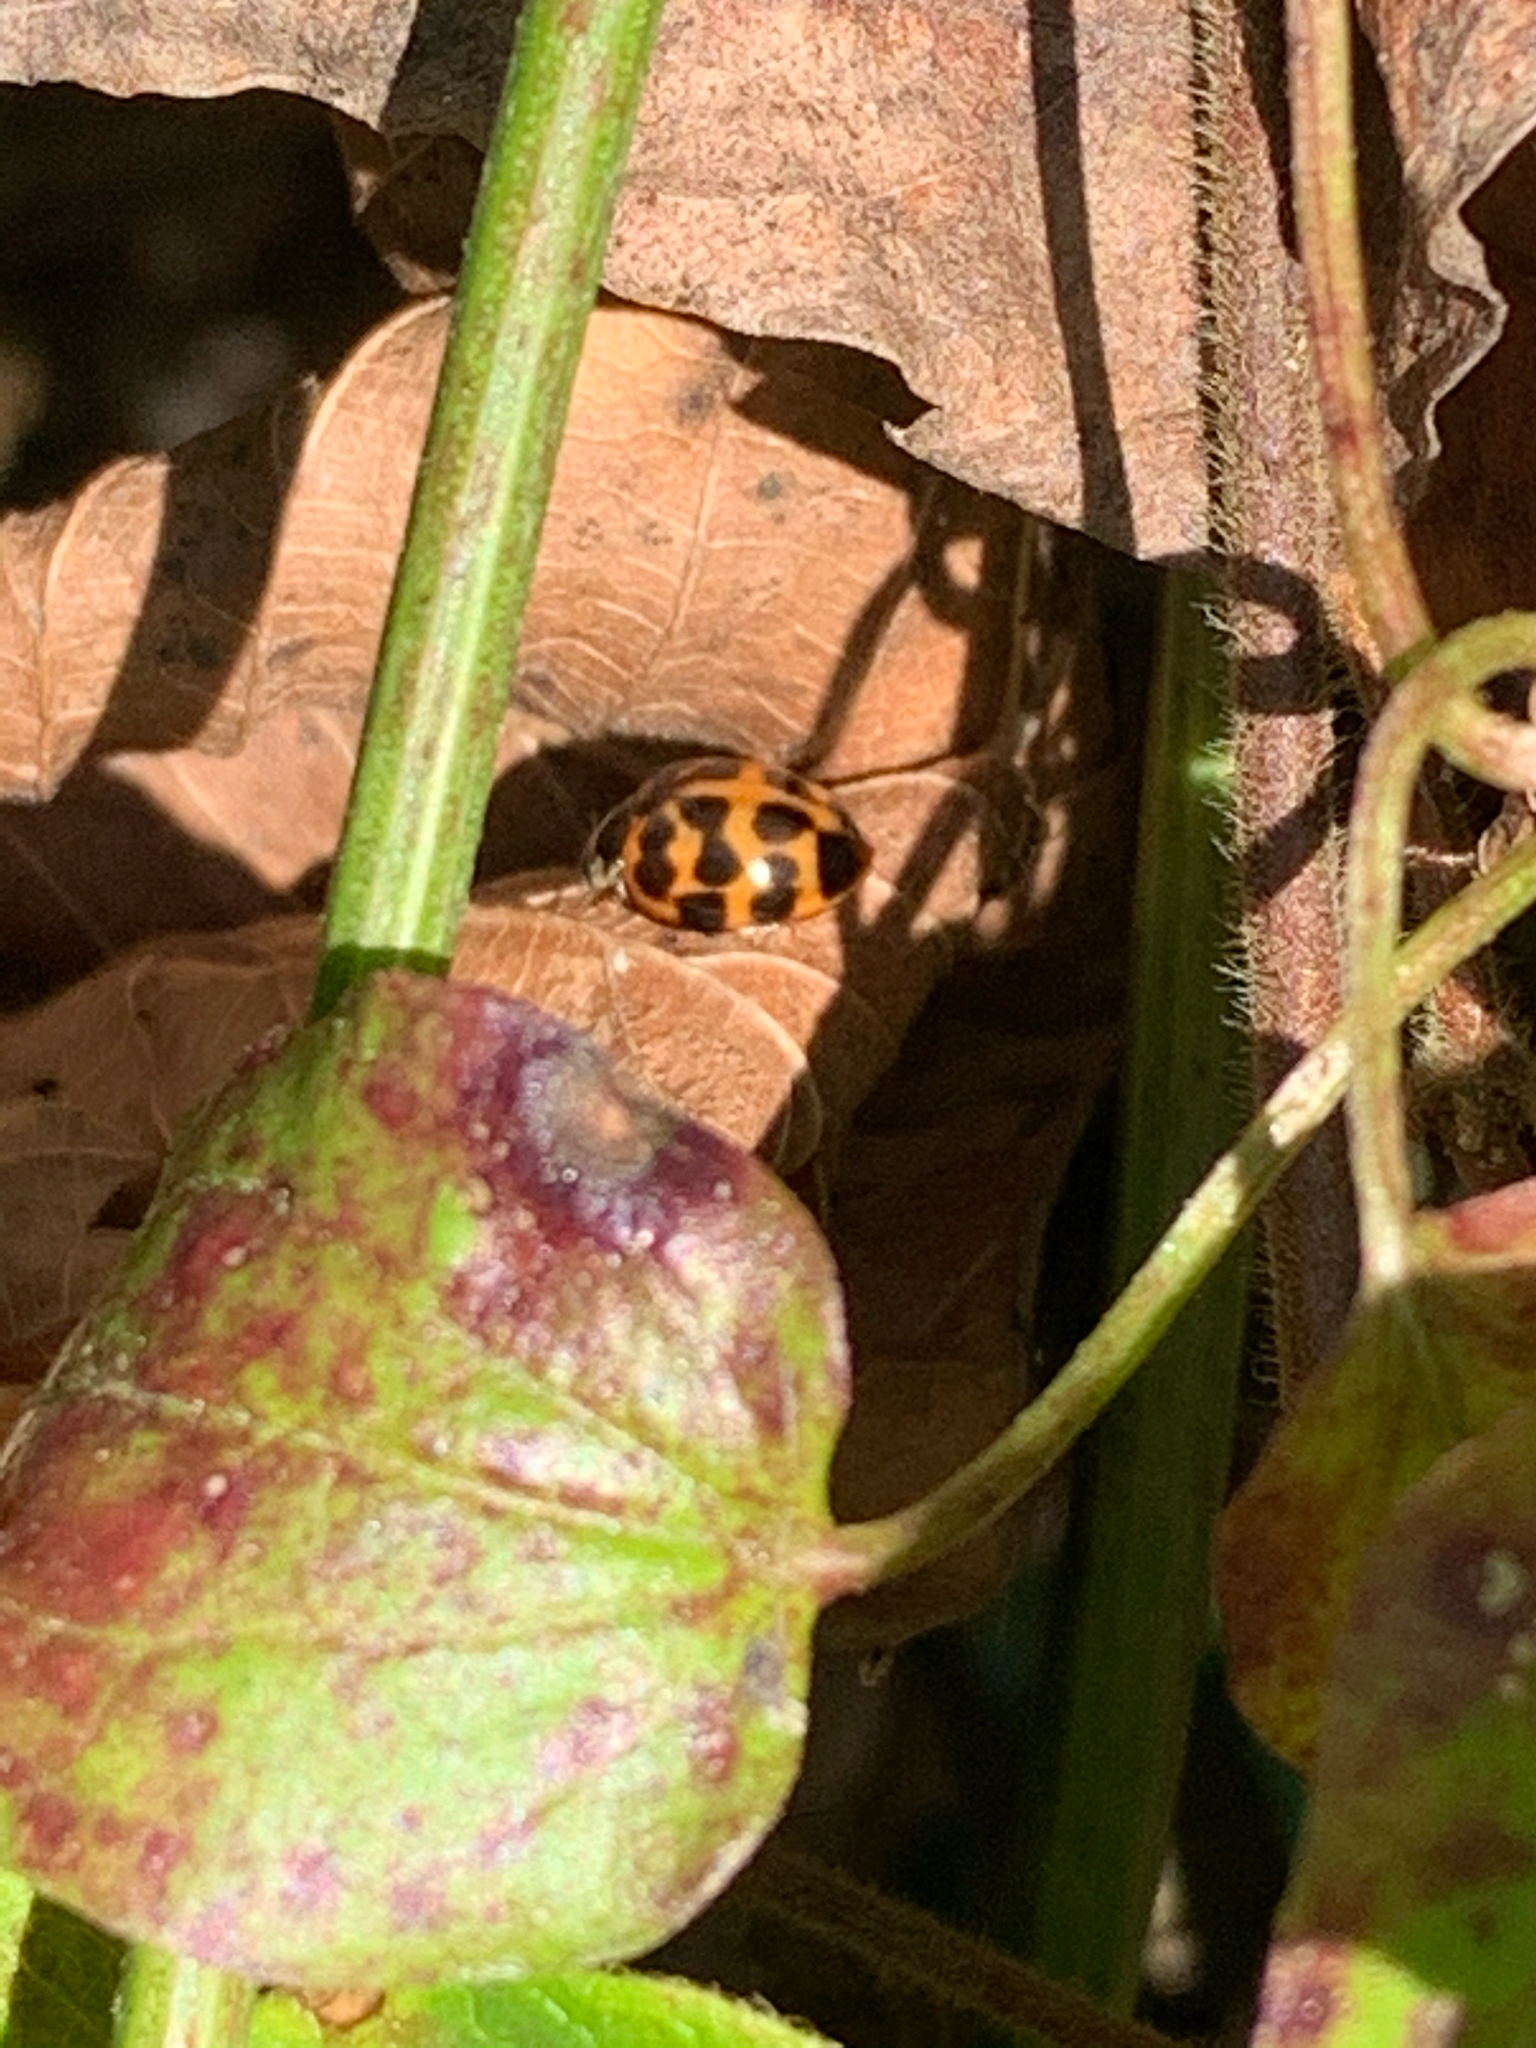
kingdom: Animalia
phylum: Arthropoda
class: Insecta
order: Coleoptera
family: Coccinellidae
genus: Harmonia
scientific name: Harmonia axyridis
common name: Harlequin ladybird
